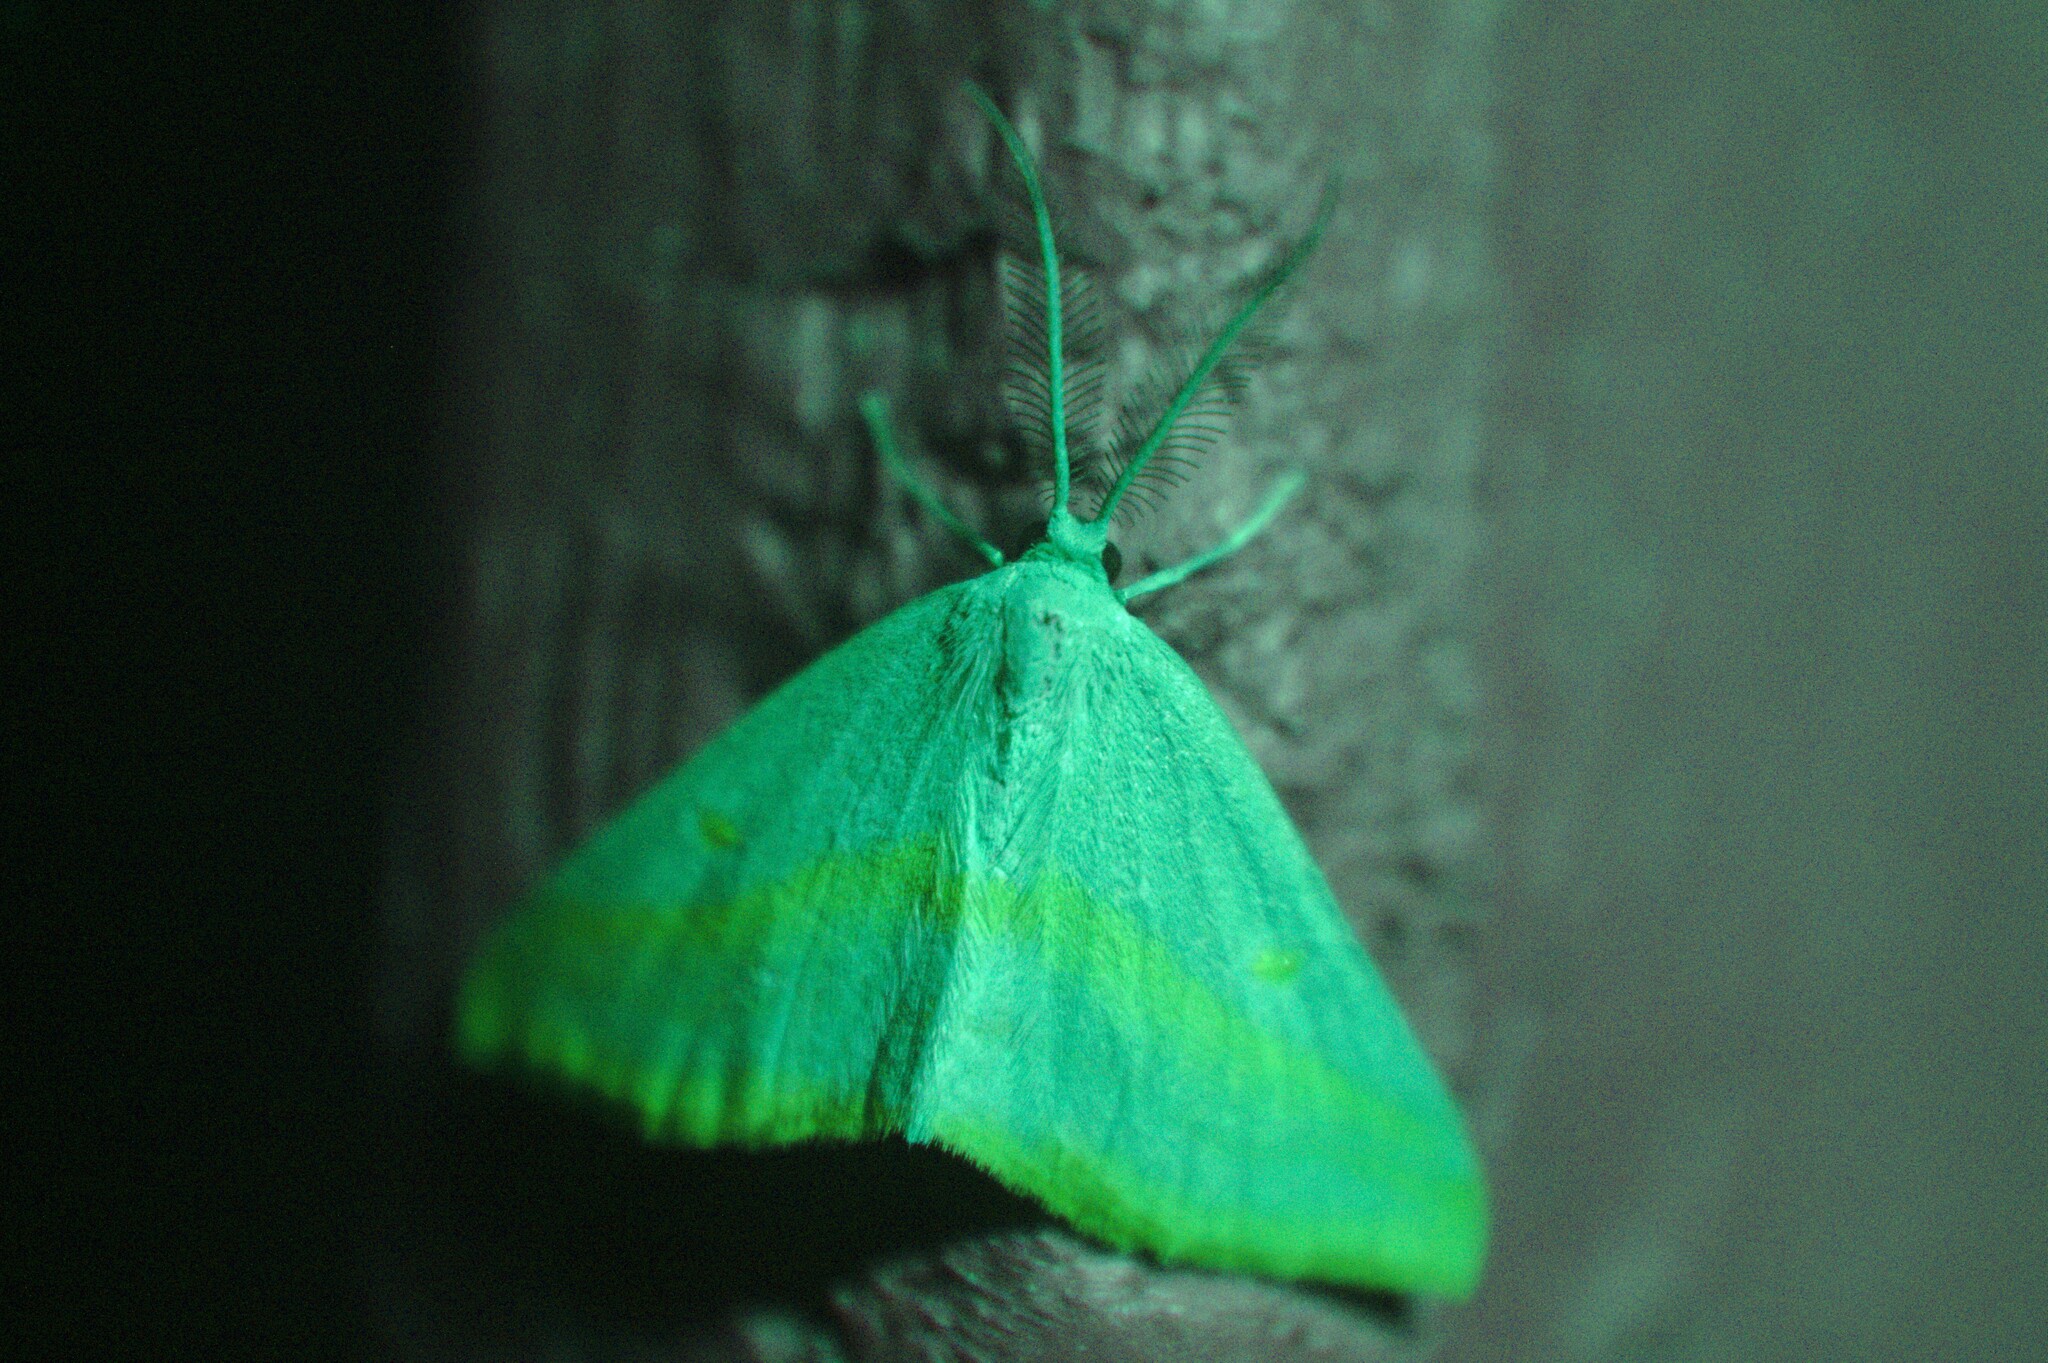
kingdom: Animalia
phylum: Arthropoda
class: Insecta
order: Lepidoptera
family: Geometridae
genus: Haematopis
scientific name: Haematopis grataria
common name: Chickweed geometer
